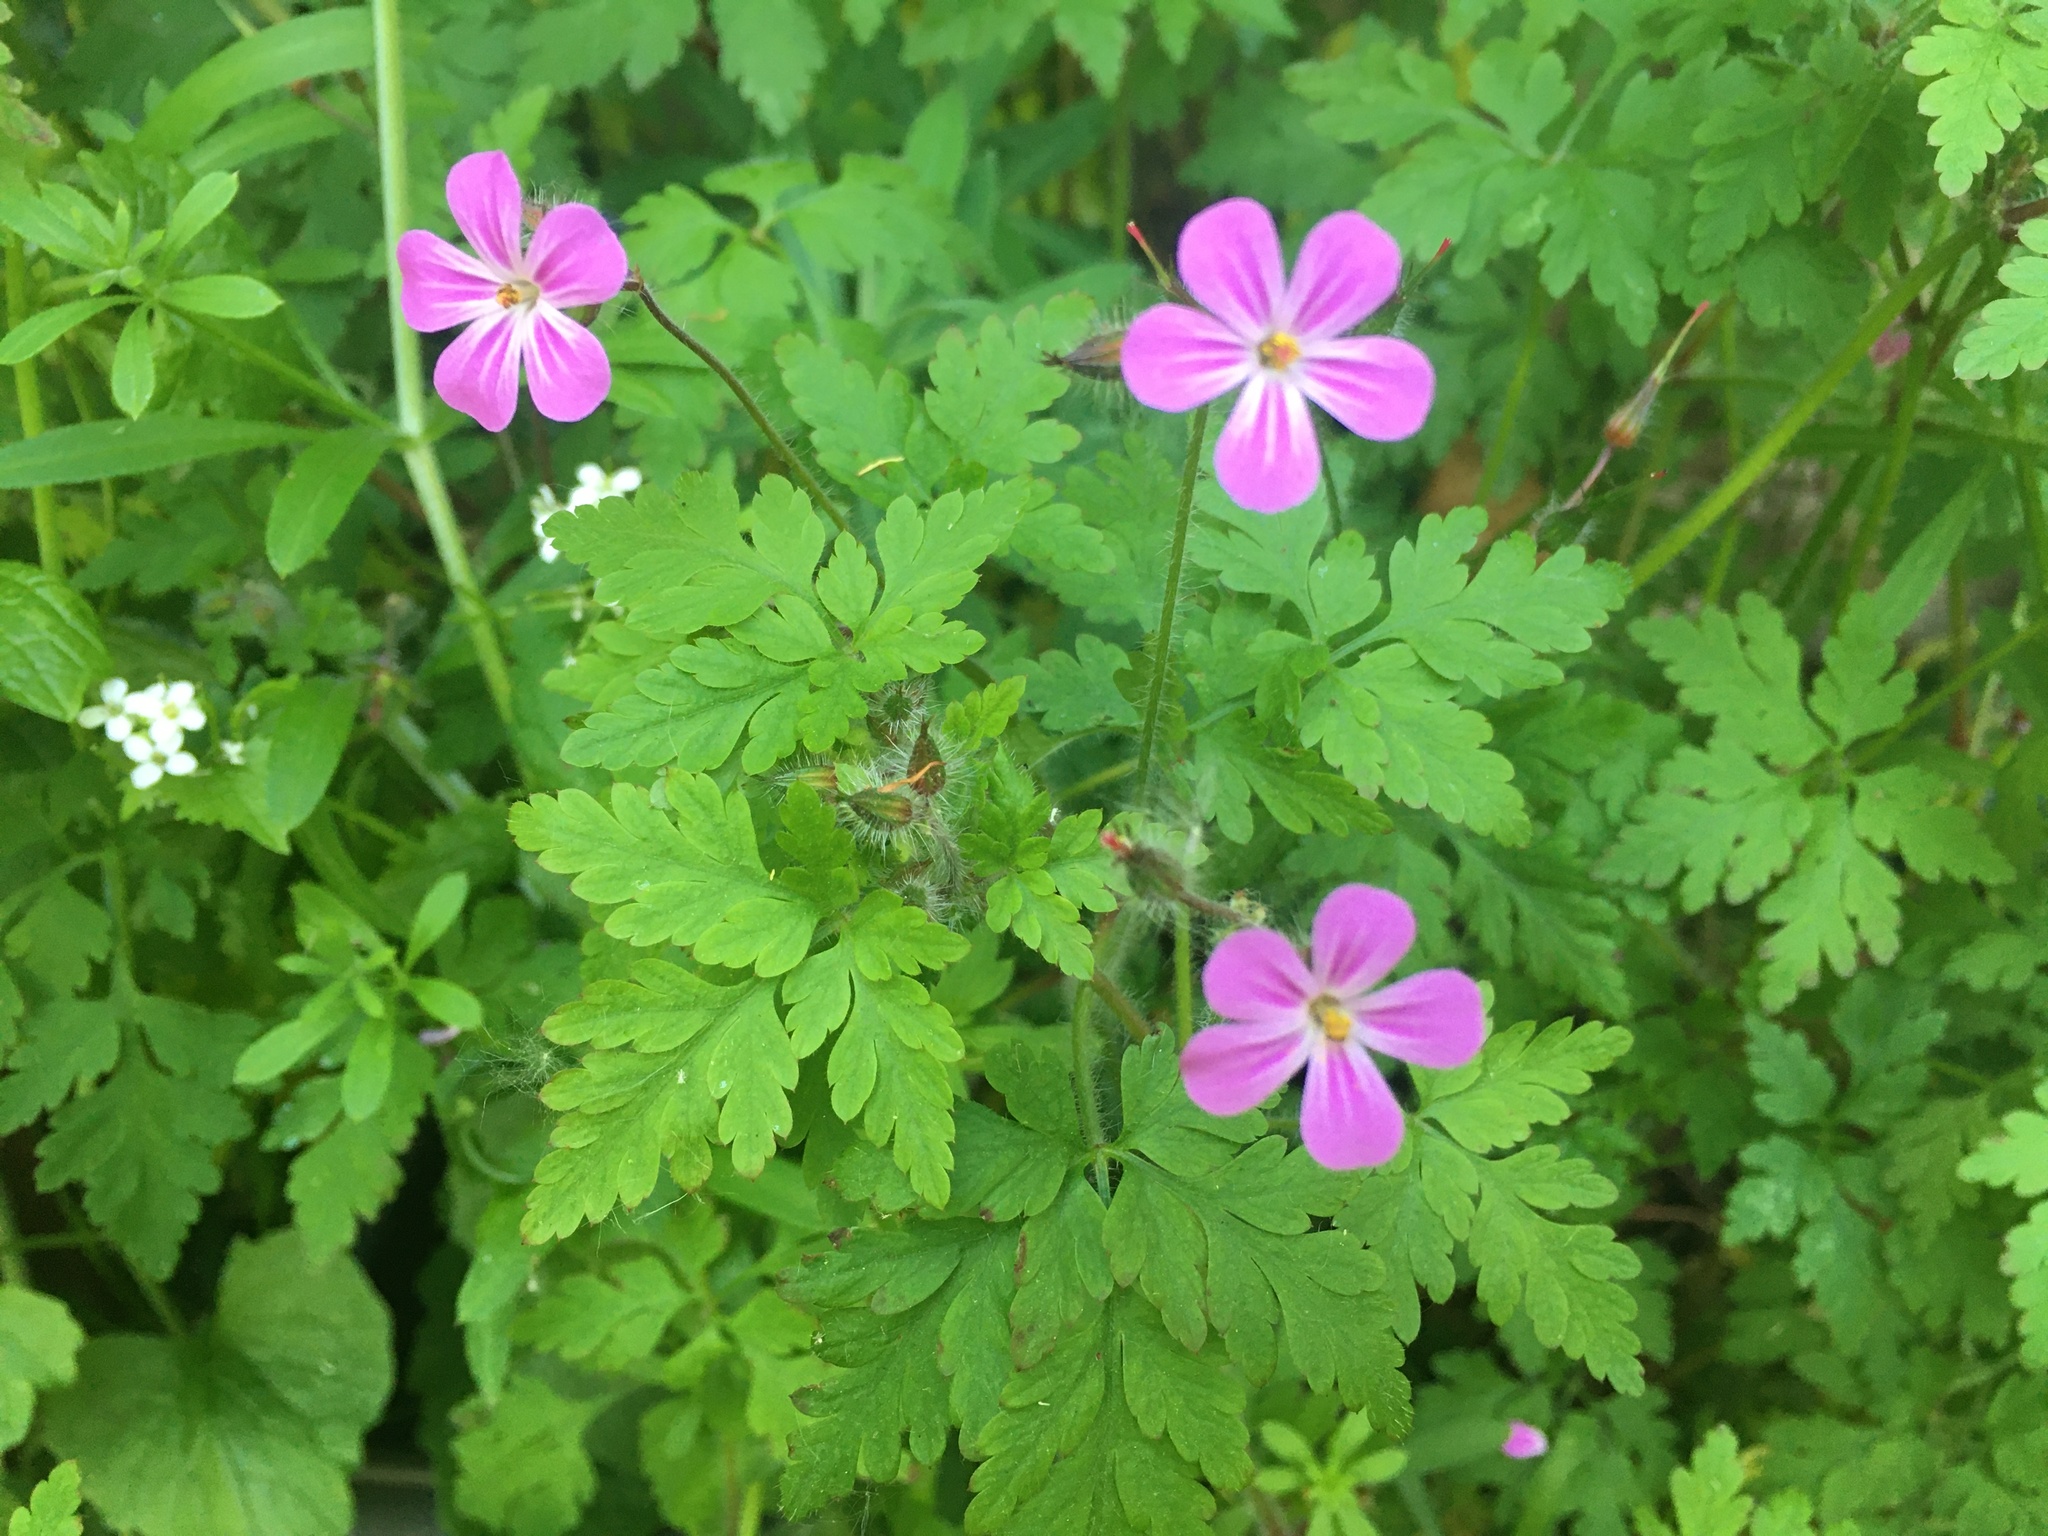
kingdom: Plantae
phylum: Tracheophyta
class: Magnoliopsida
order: Geraniales
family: Geraniaceae
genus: Geranium
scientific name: Geranium robertianum
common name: Herb-robert
